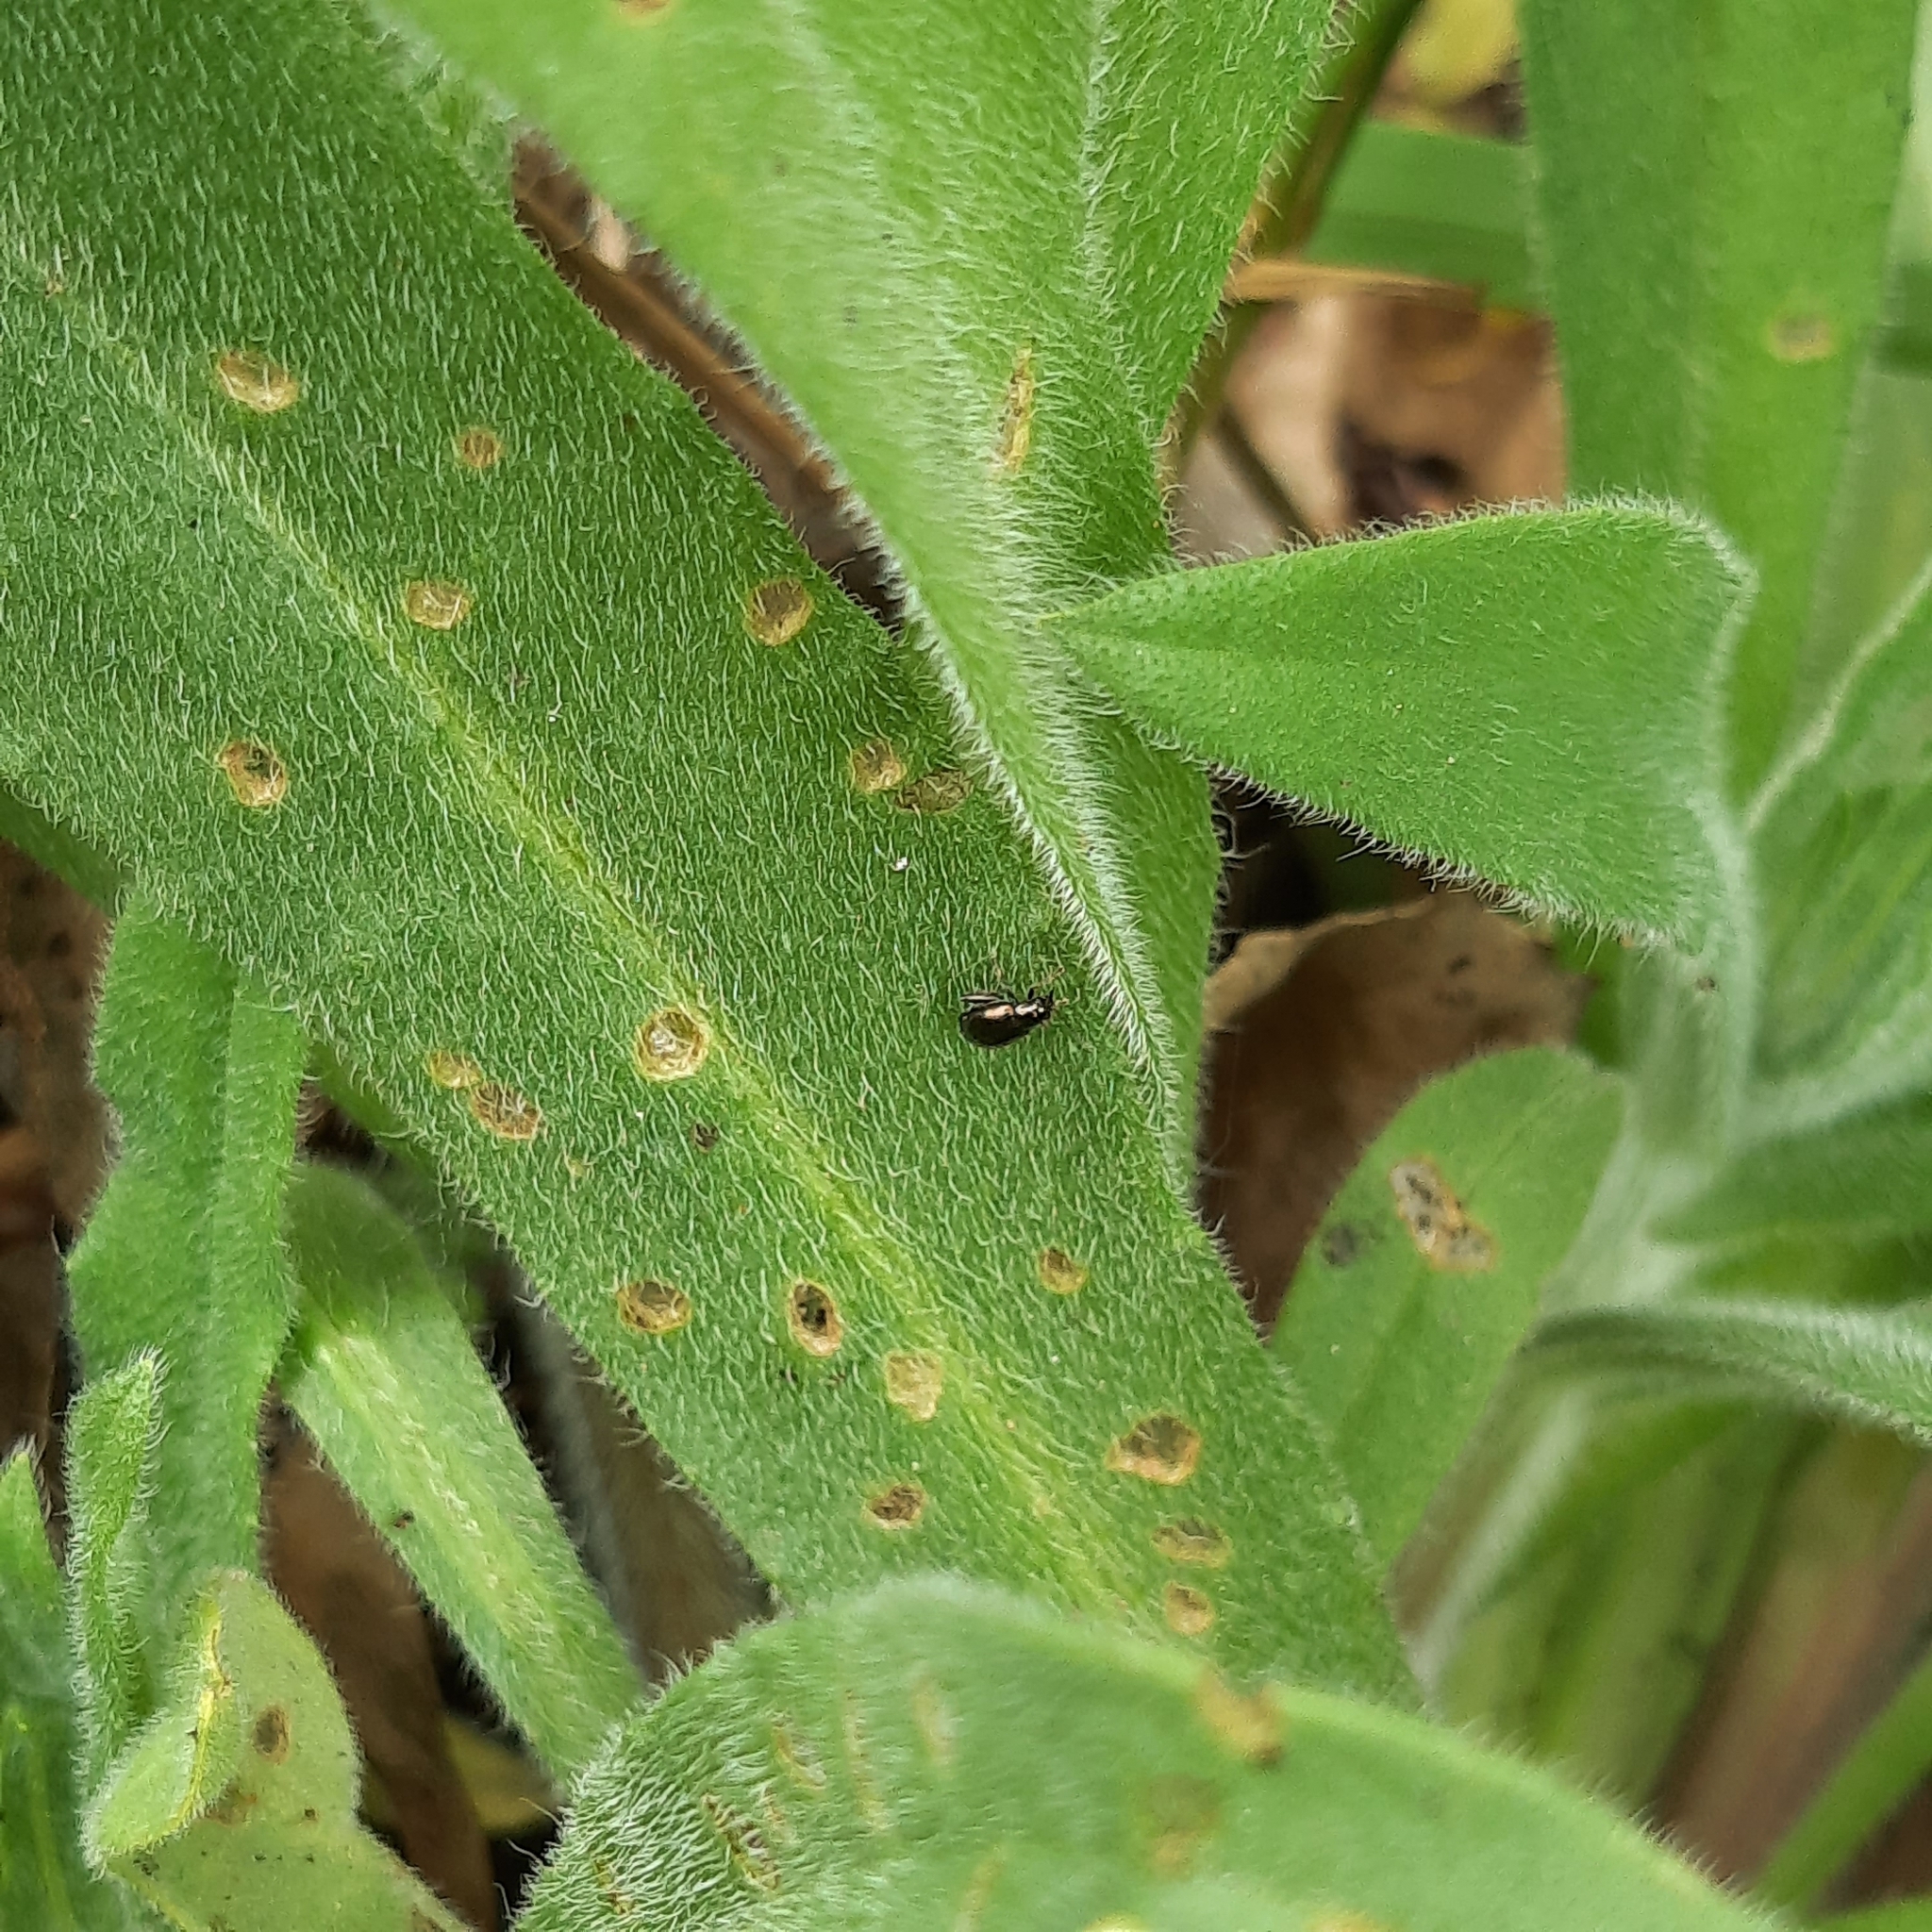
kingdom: Plantae
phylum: Tracheophyta
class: Magnoliopsida
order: Boraginales
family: Boraginaceae
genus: Anchusa
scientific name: Anchusa officinalis
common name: Alkanet
